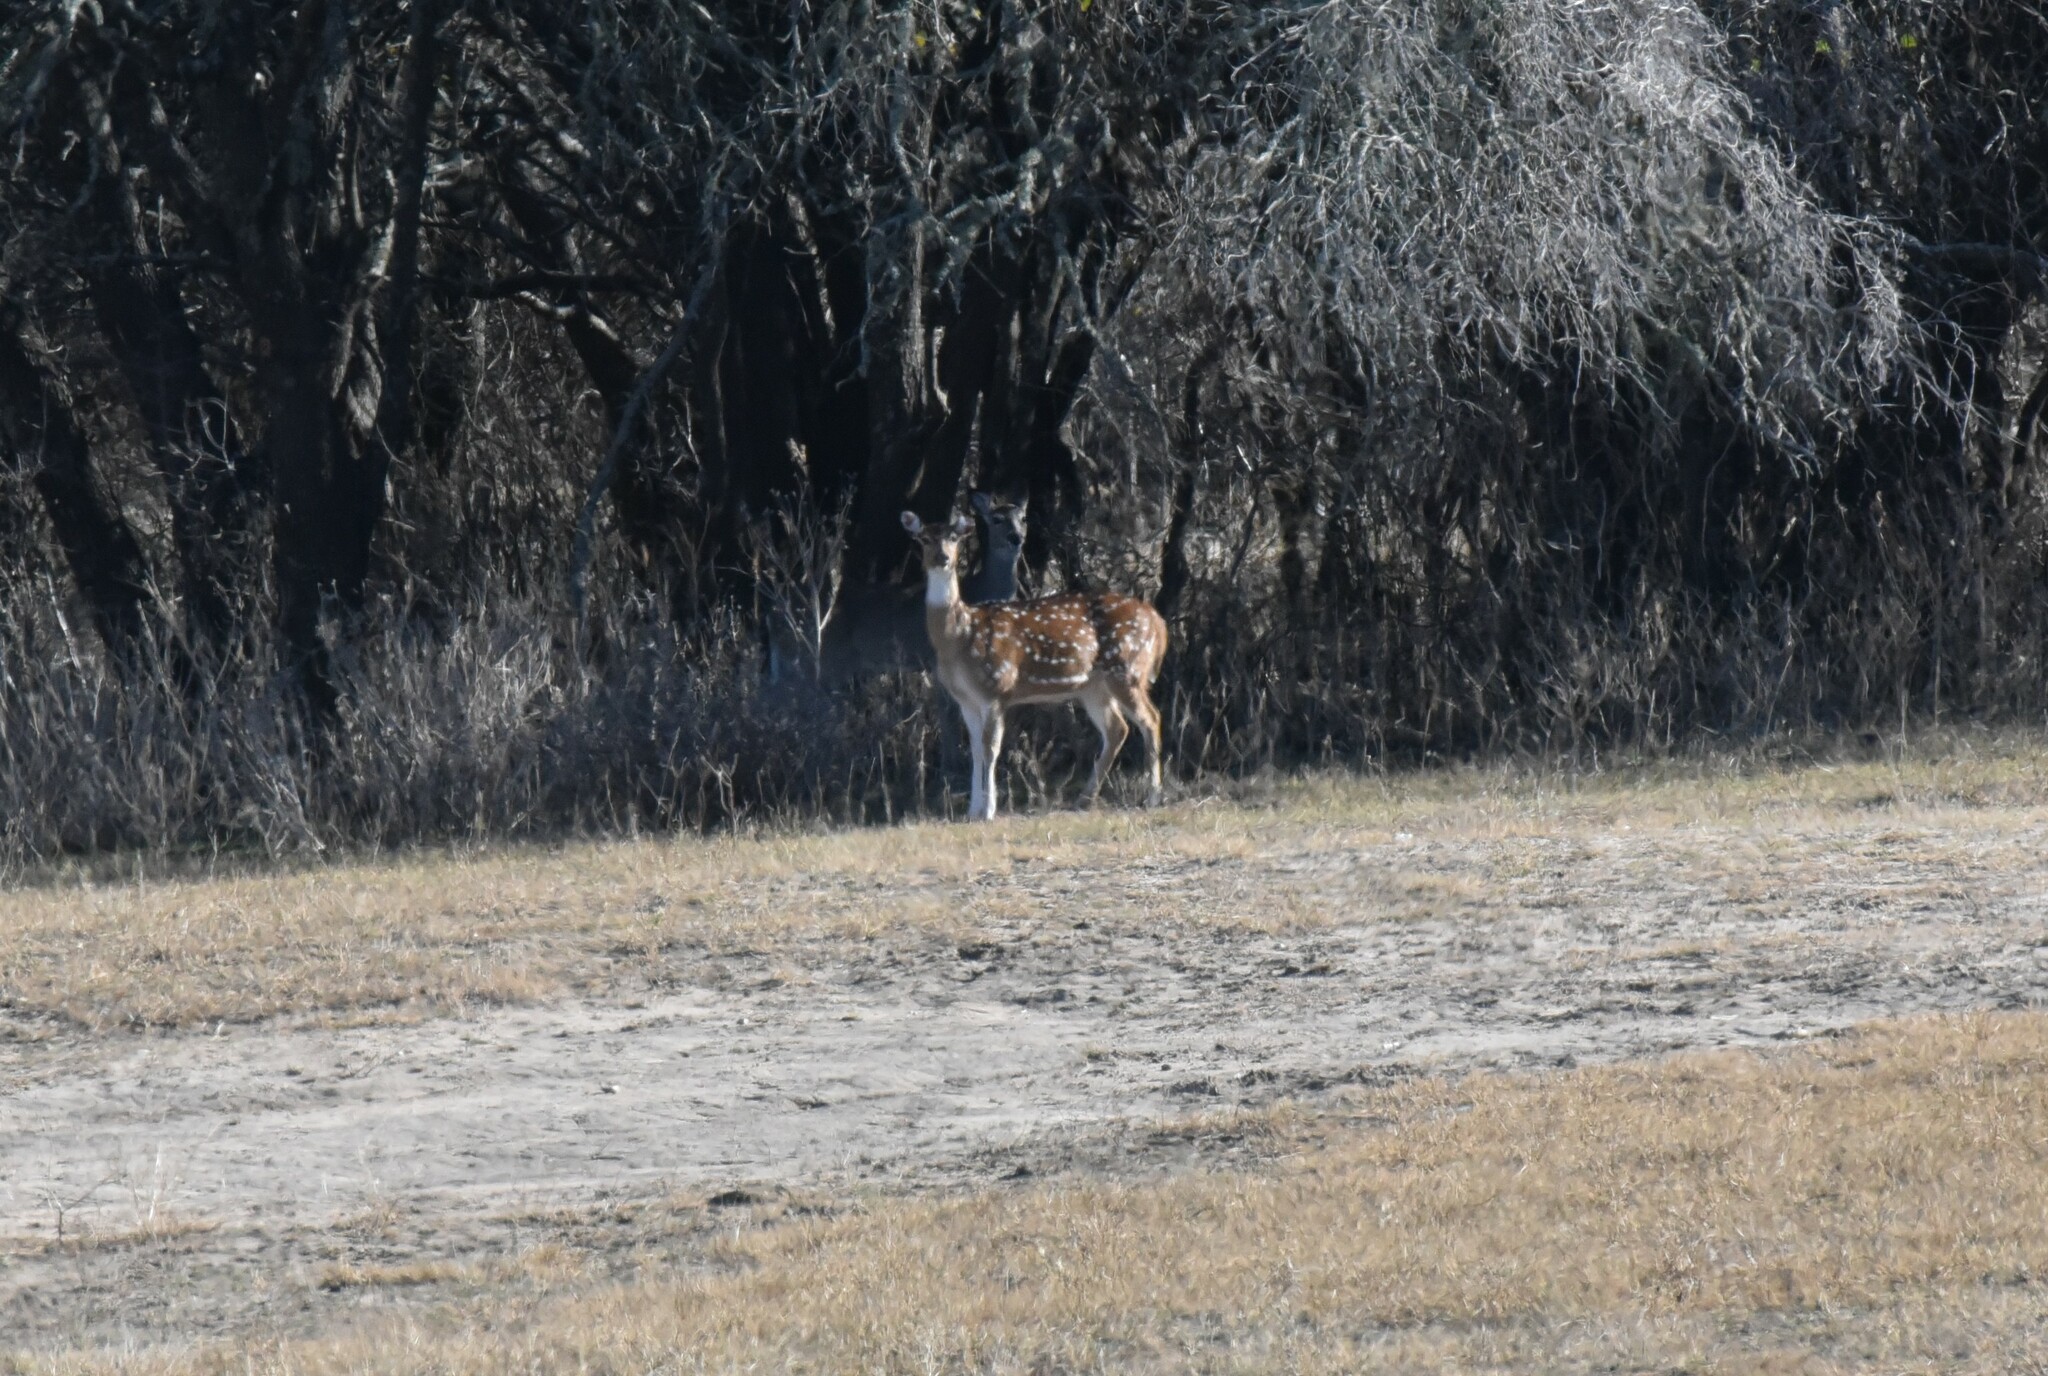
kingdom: Animalia
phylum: Chordata
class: Mammalia
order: Artiodactyla
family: Cervidae
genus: Axis
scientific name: Axis axis
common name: Chital
